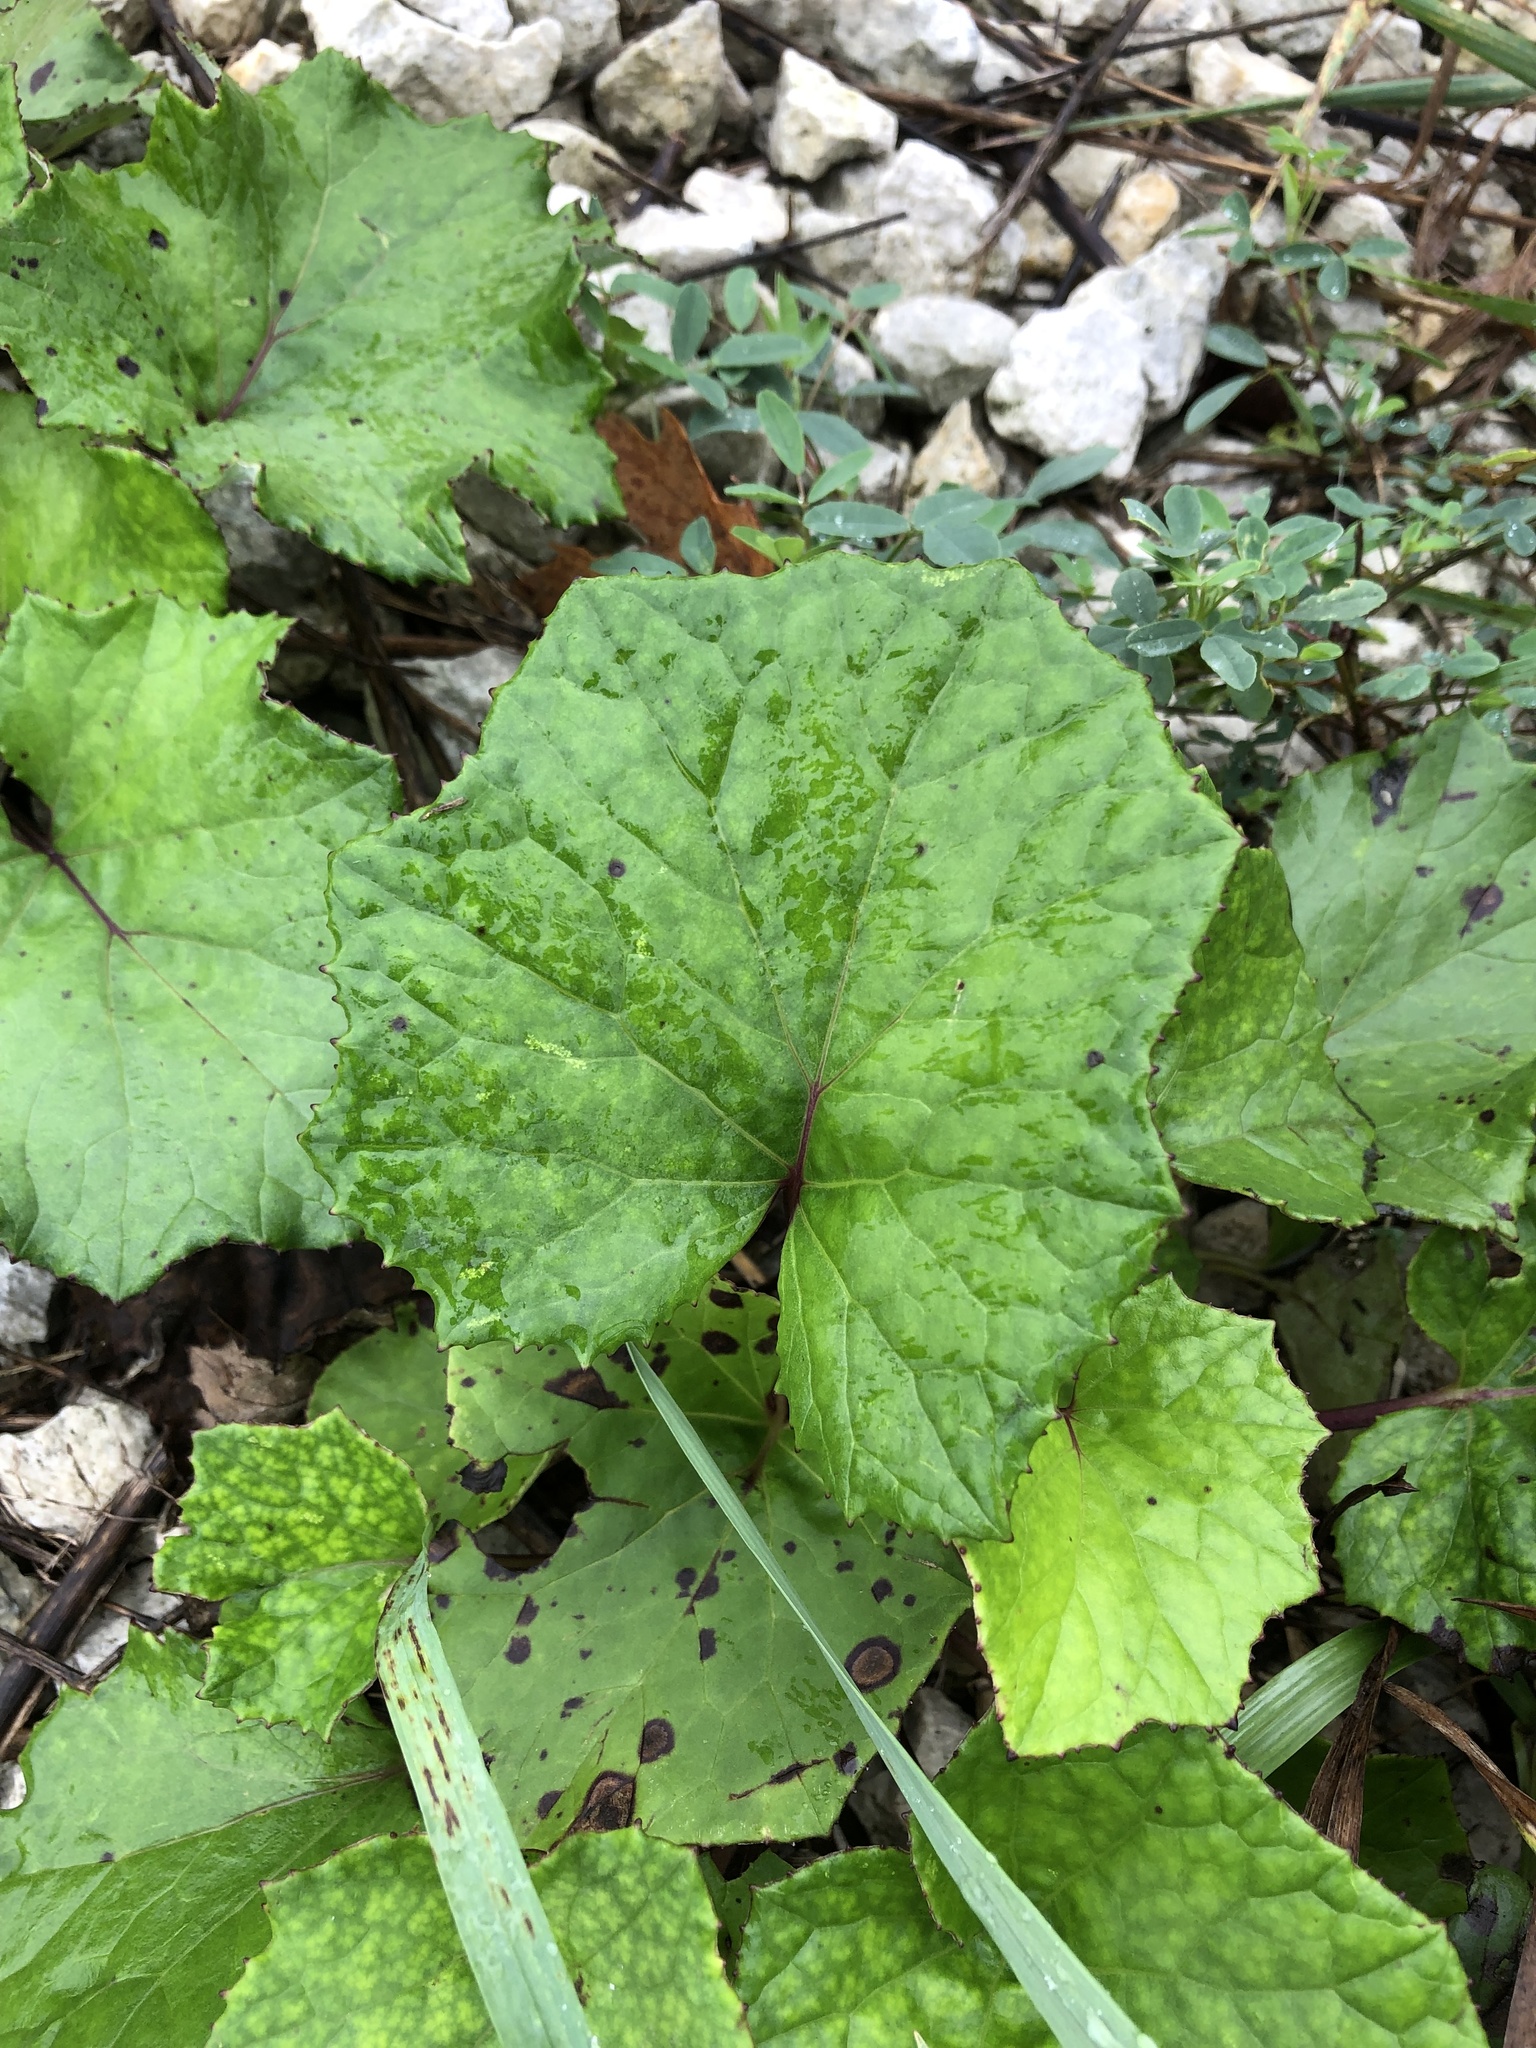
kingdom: Plantae
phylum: Tracheophyta
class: Magnoliopsida
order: Asterales
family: Asteraceae
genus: Tussilago
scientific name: Tussilago farfara
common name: Coltsfoot
